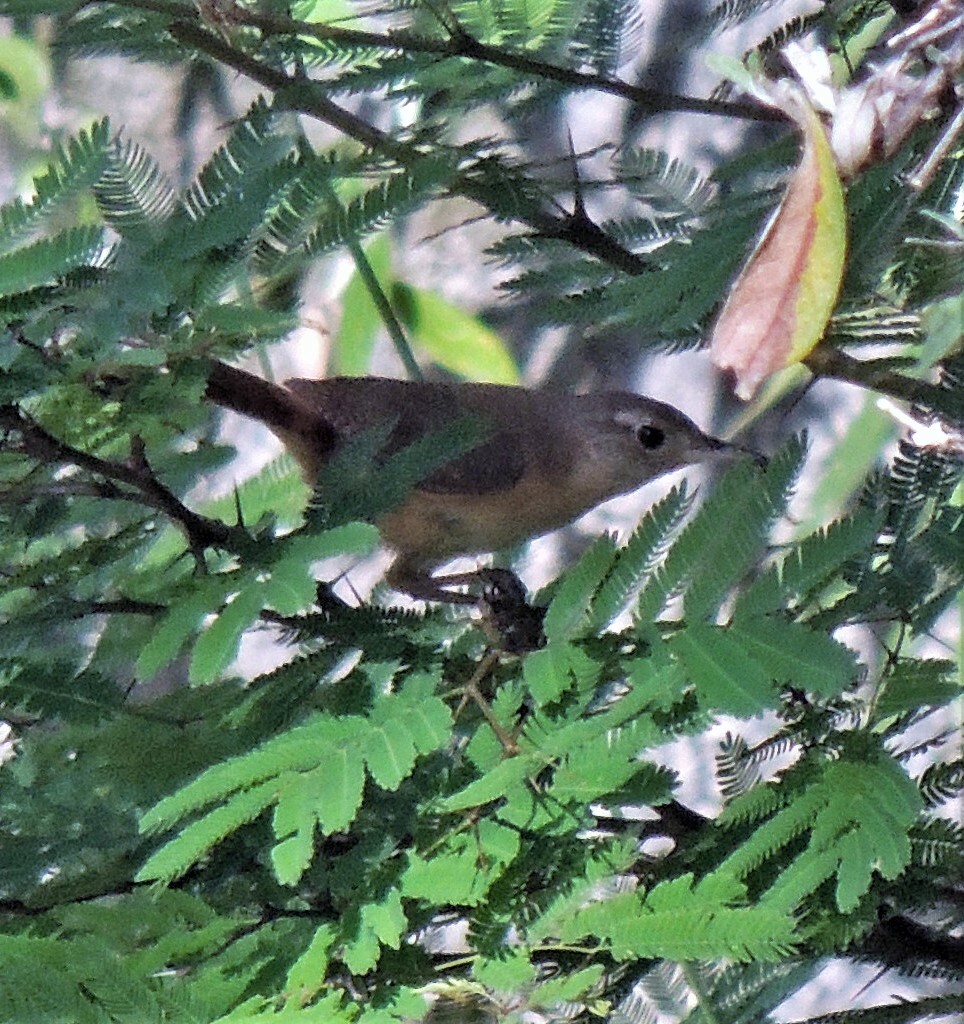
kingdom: Animalia
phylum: Chordata
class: Aves
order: Passeriformes
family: Troglodytidae
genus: Troglodytes
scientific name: Troglodytes solstitialis
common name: Mountain wren
